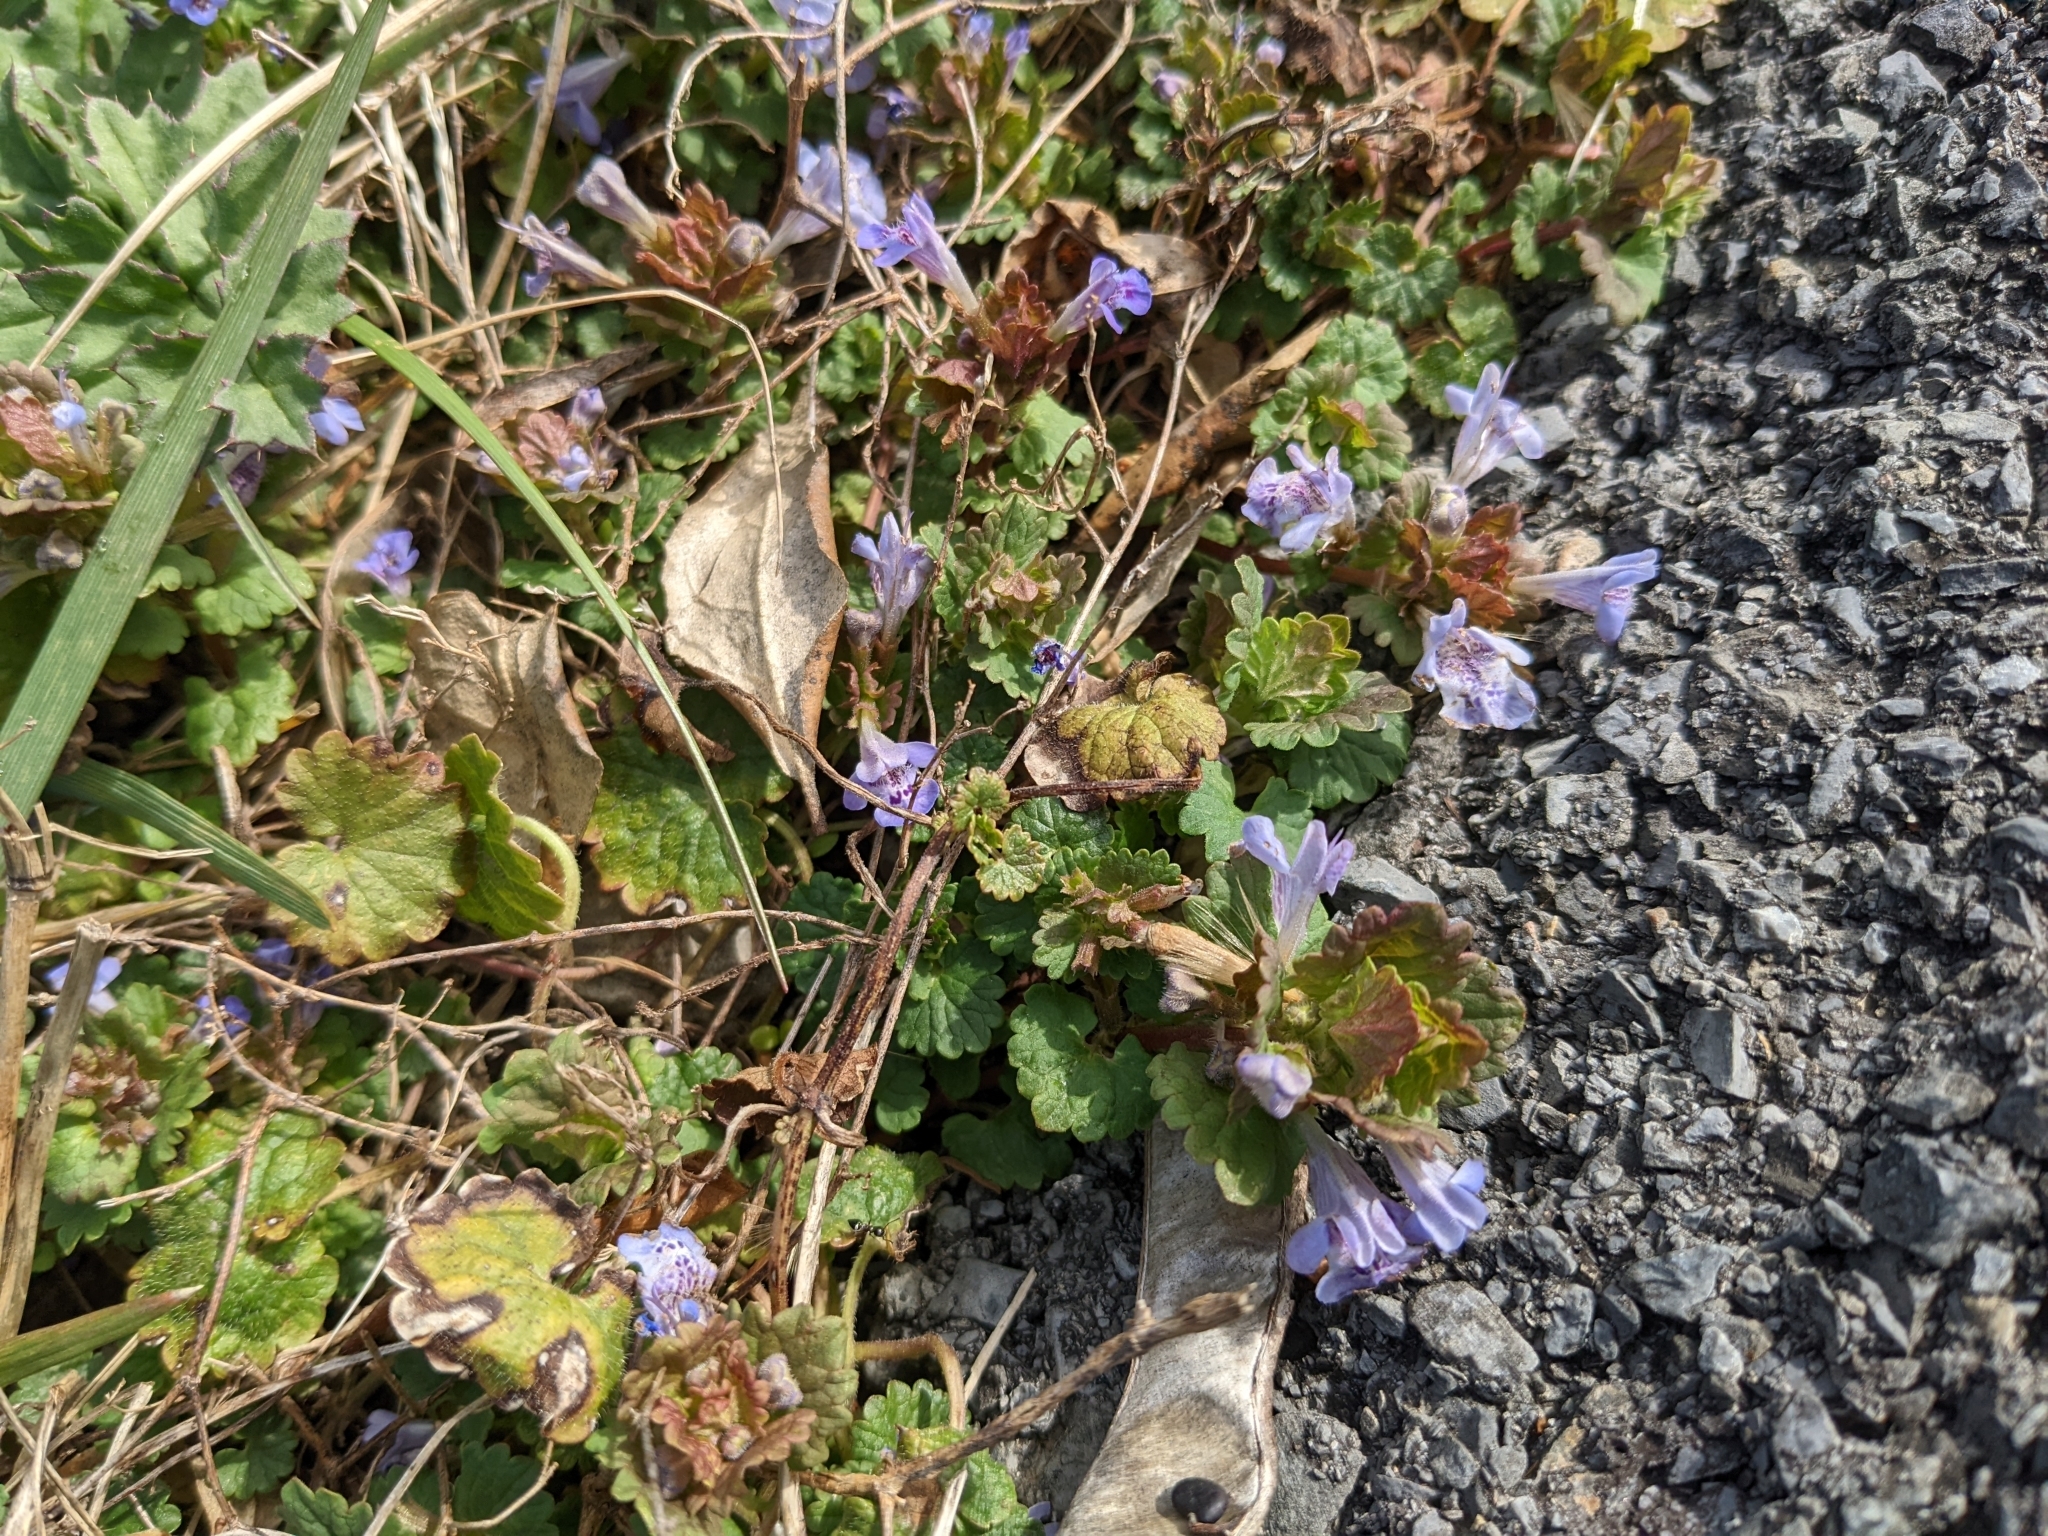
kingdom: Plantae
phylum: Tracheophyta
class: Magnoliopsida
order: Lamiales
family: Lamiaceae
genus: Glechoma
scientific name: Glechoma hederacea
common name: Ground ivy
